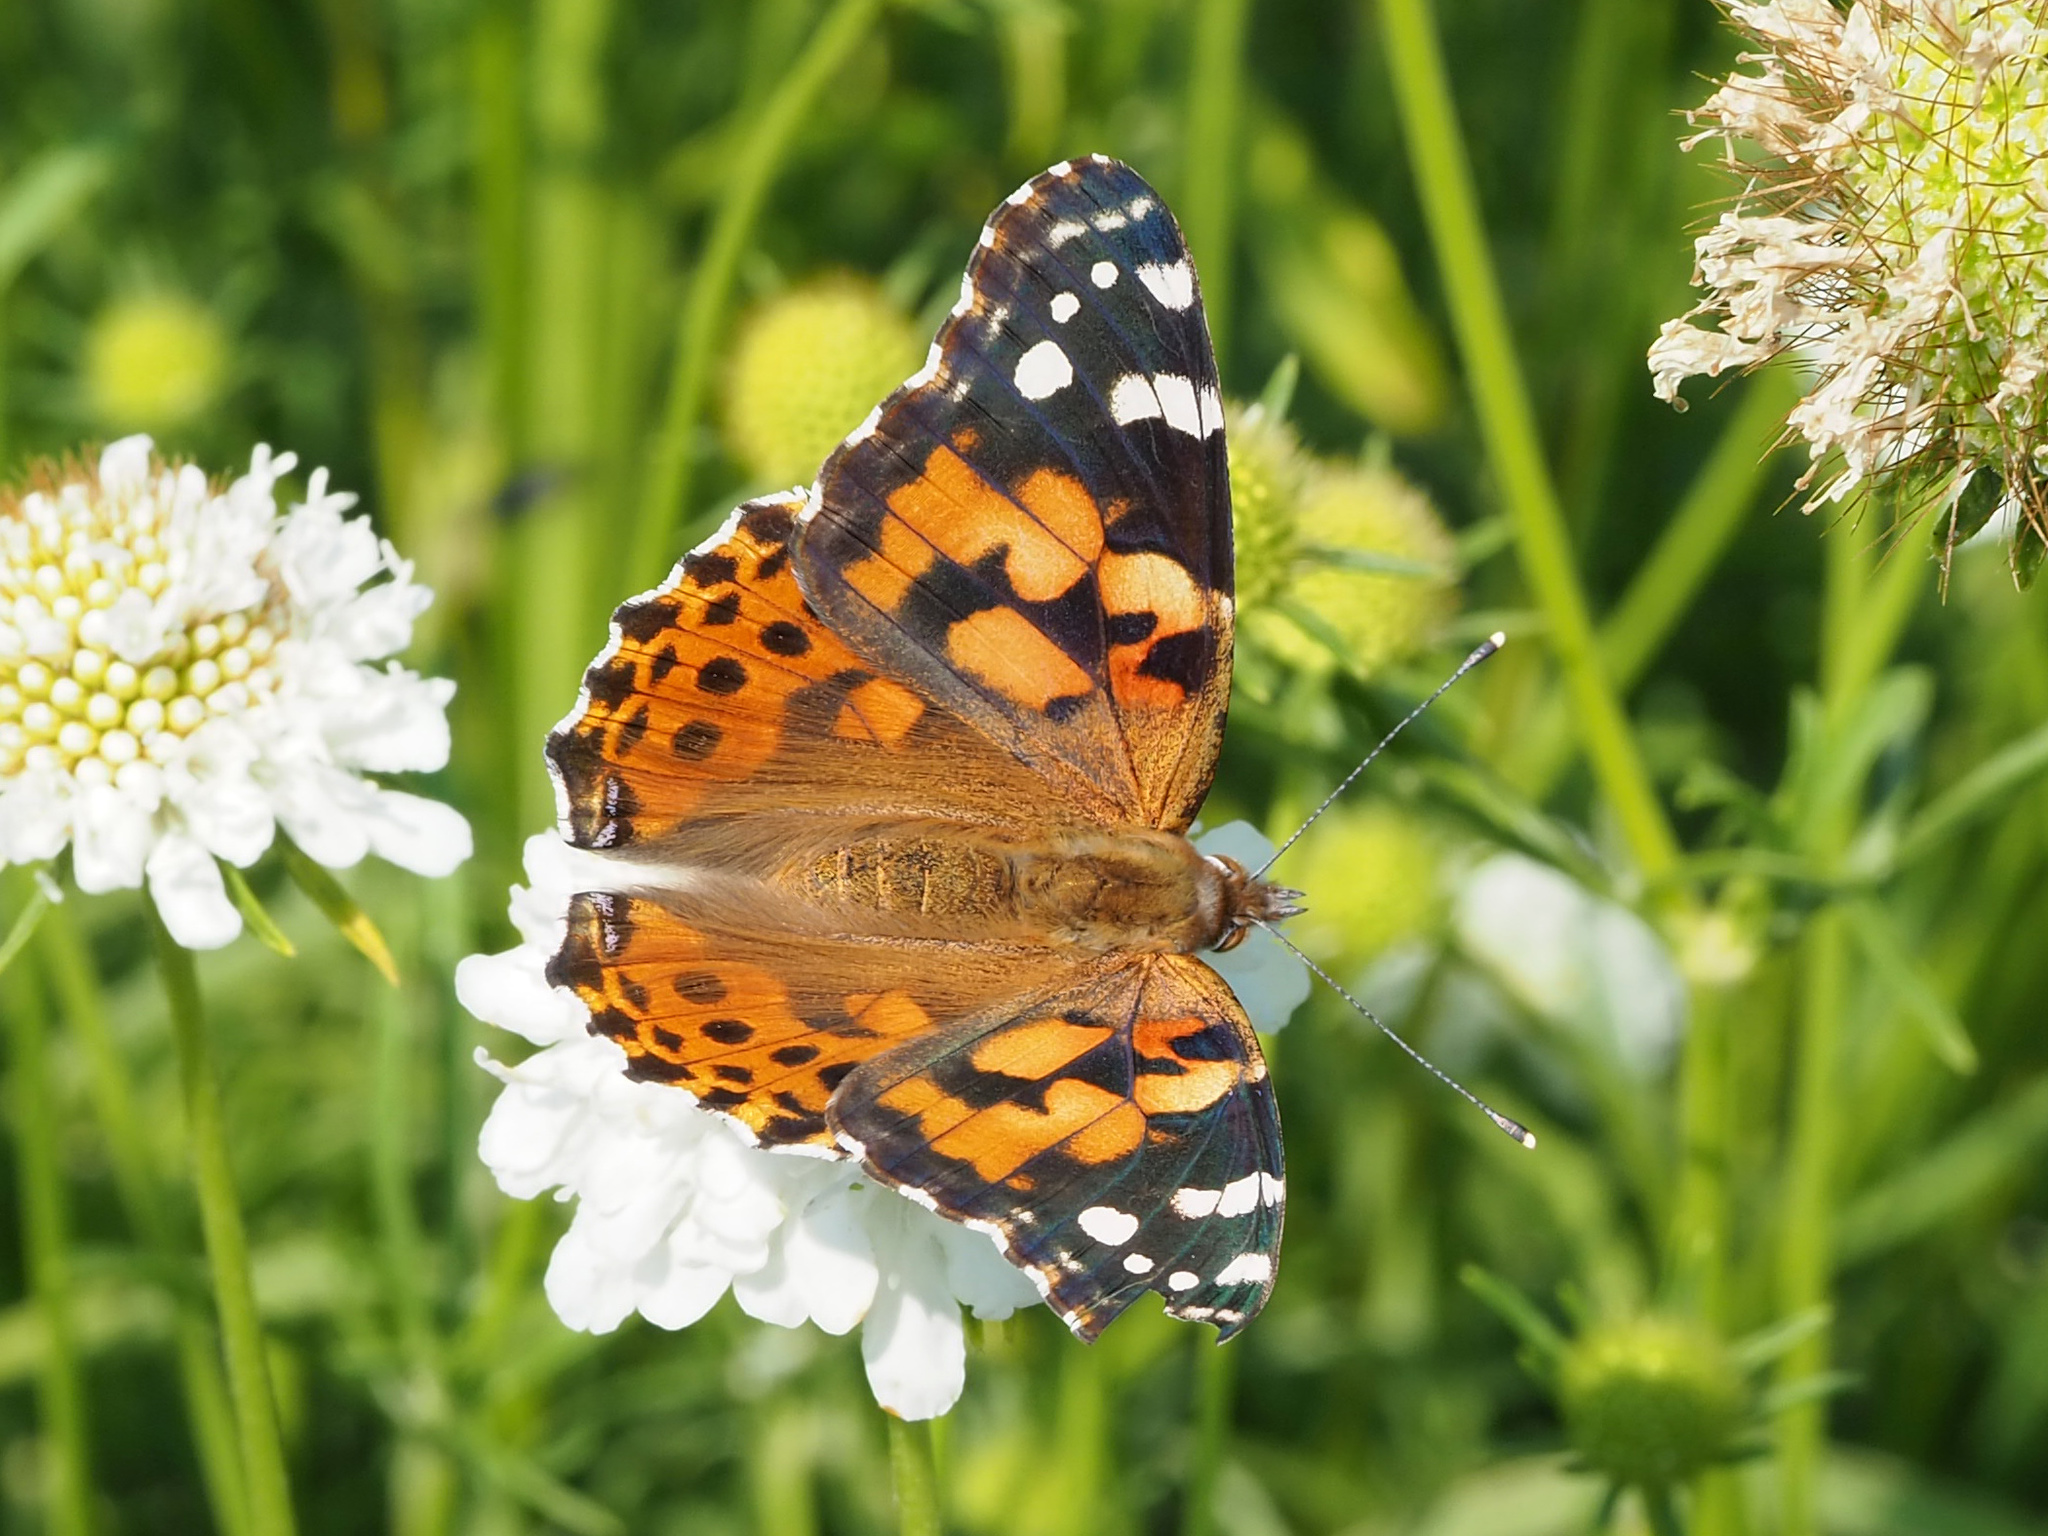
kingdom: Animalia
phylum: Arthropoda
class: Insecta
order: Lepidoptera
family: Nymphalidae
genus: Vanessa
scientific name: Vanessa cardui
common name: Painted lady
